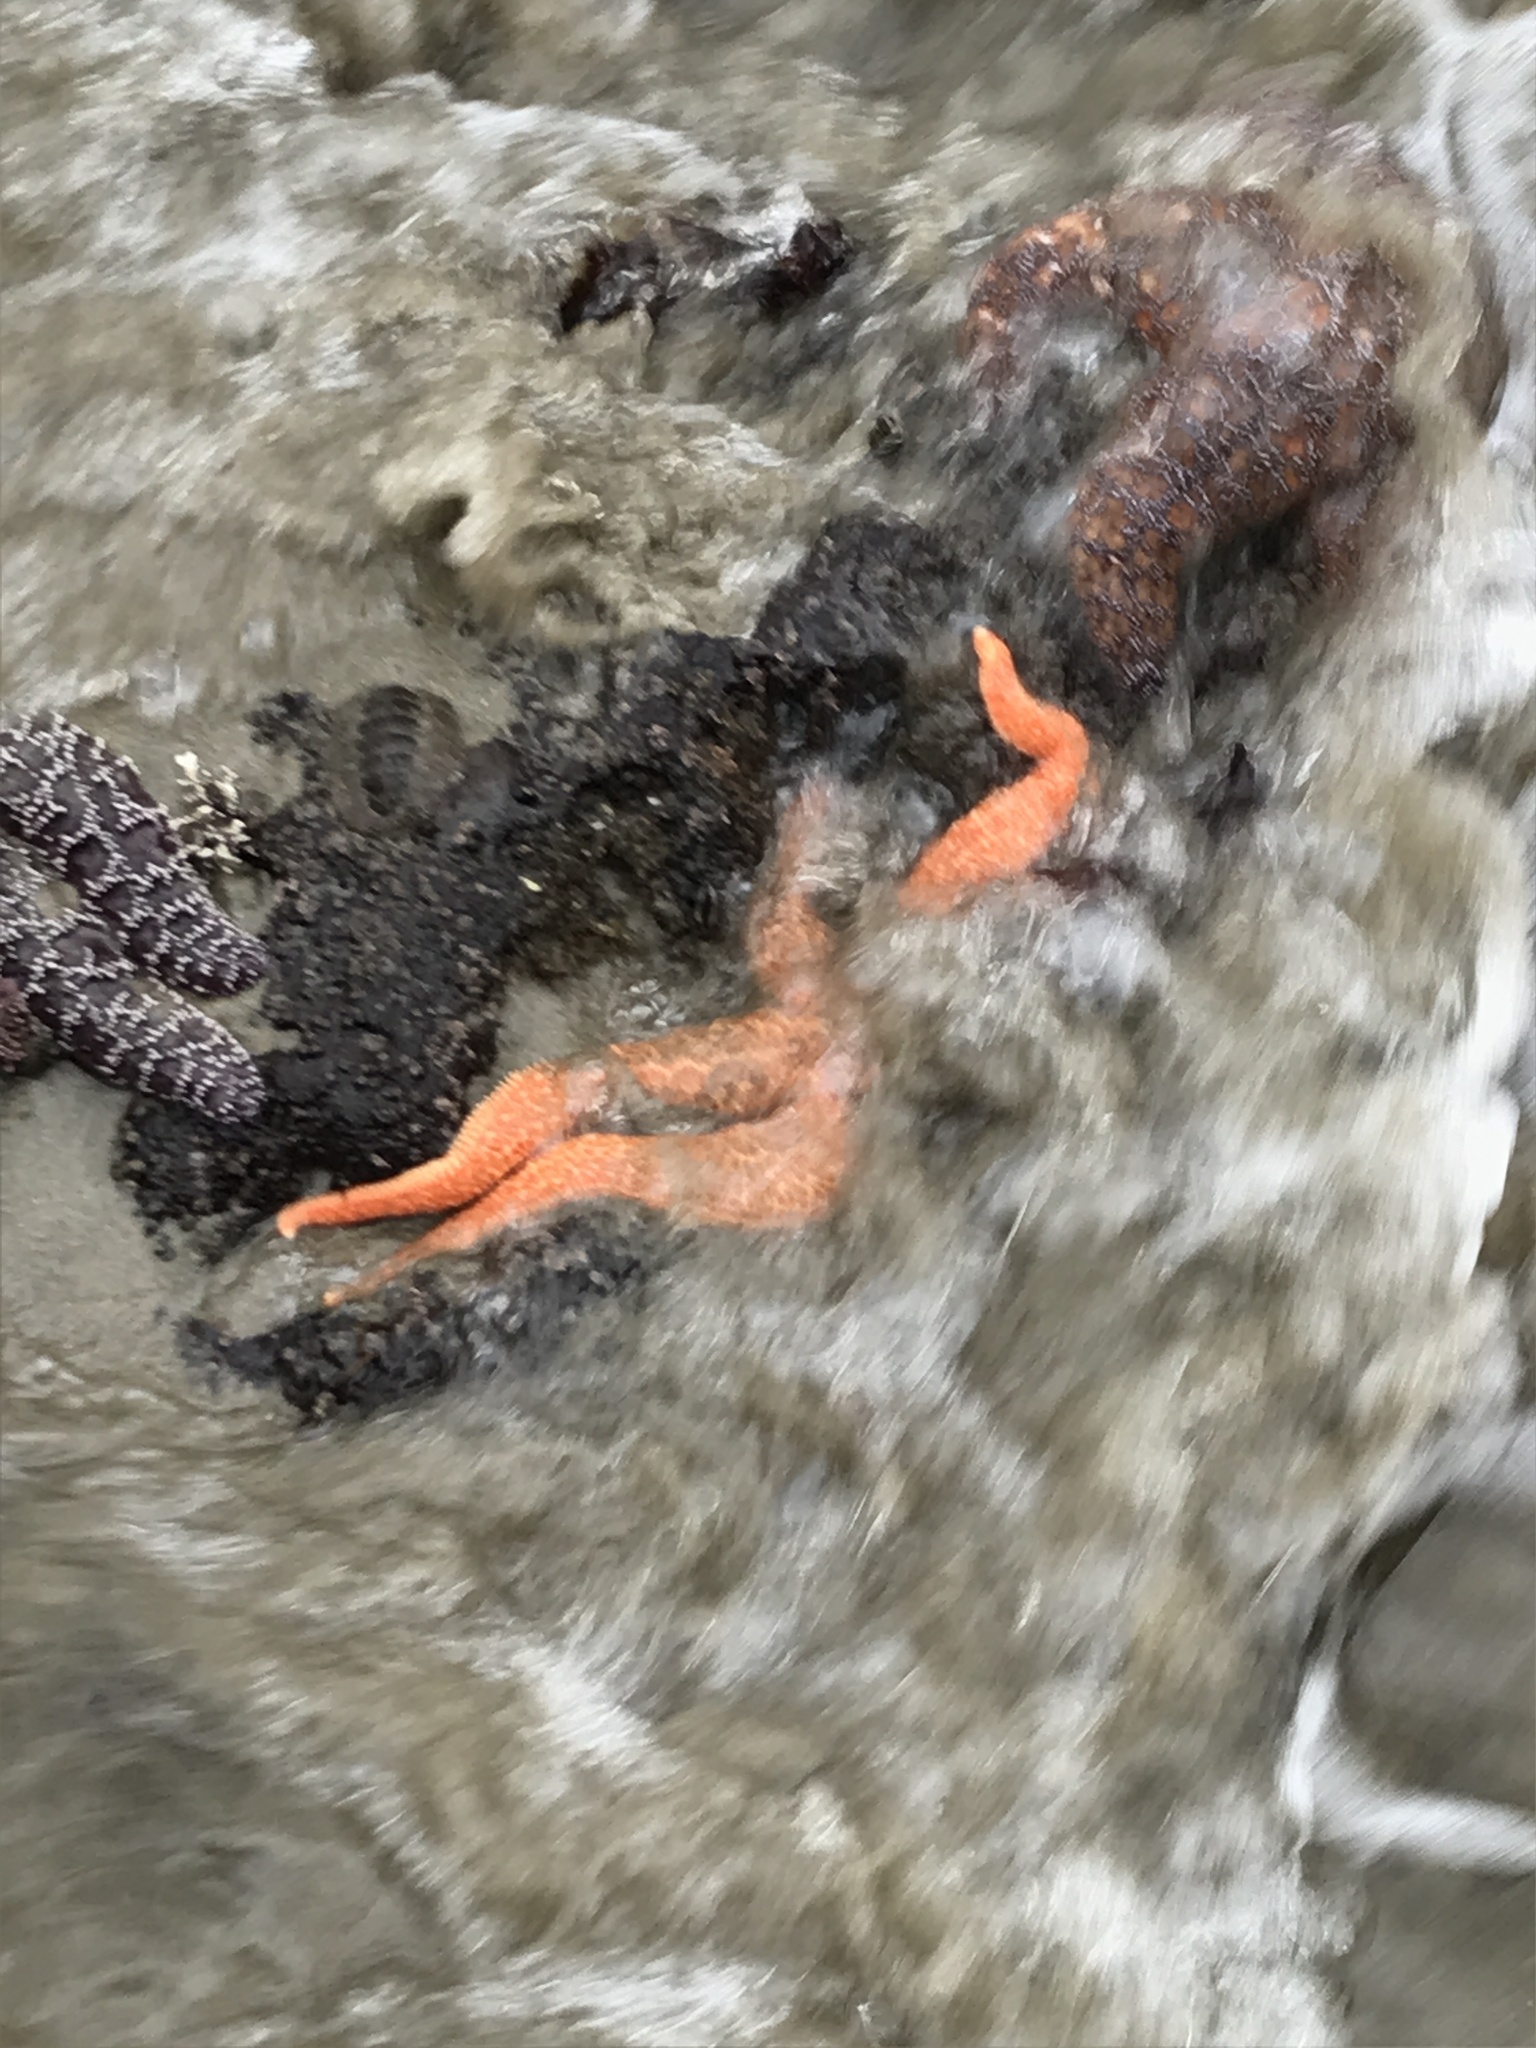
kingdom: Animalia
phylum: Echinodermata
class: Asteroidea
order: Forcipulatida
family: Asteriidae
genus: Evasterias
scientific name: Evasterias troschelii
